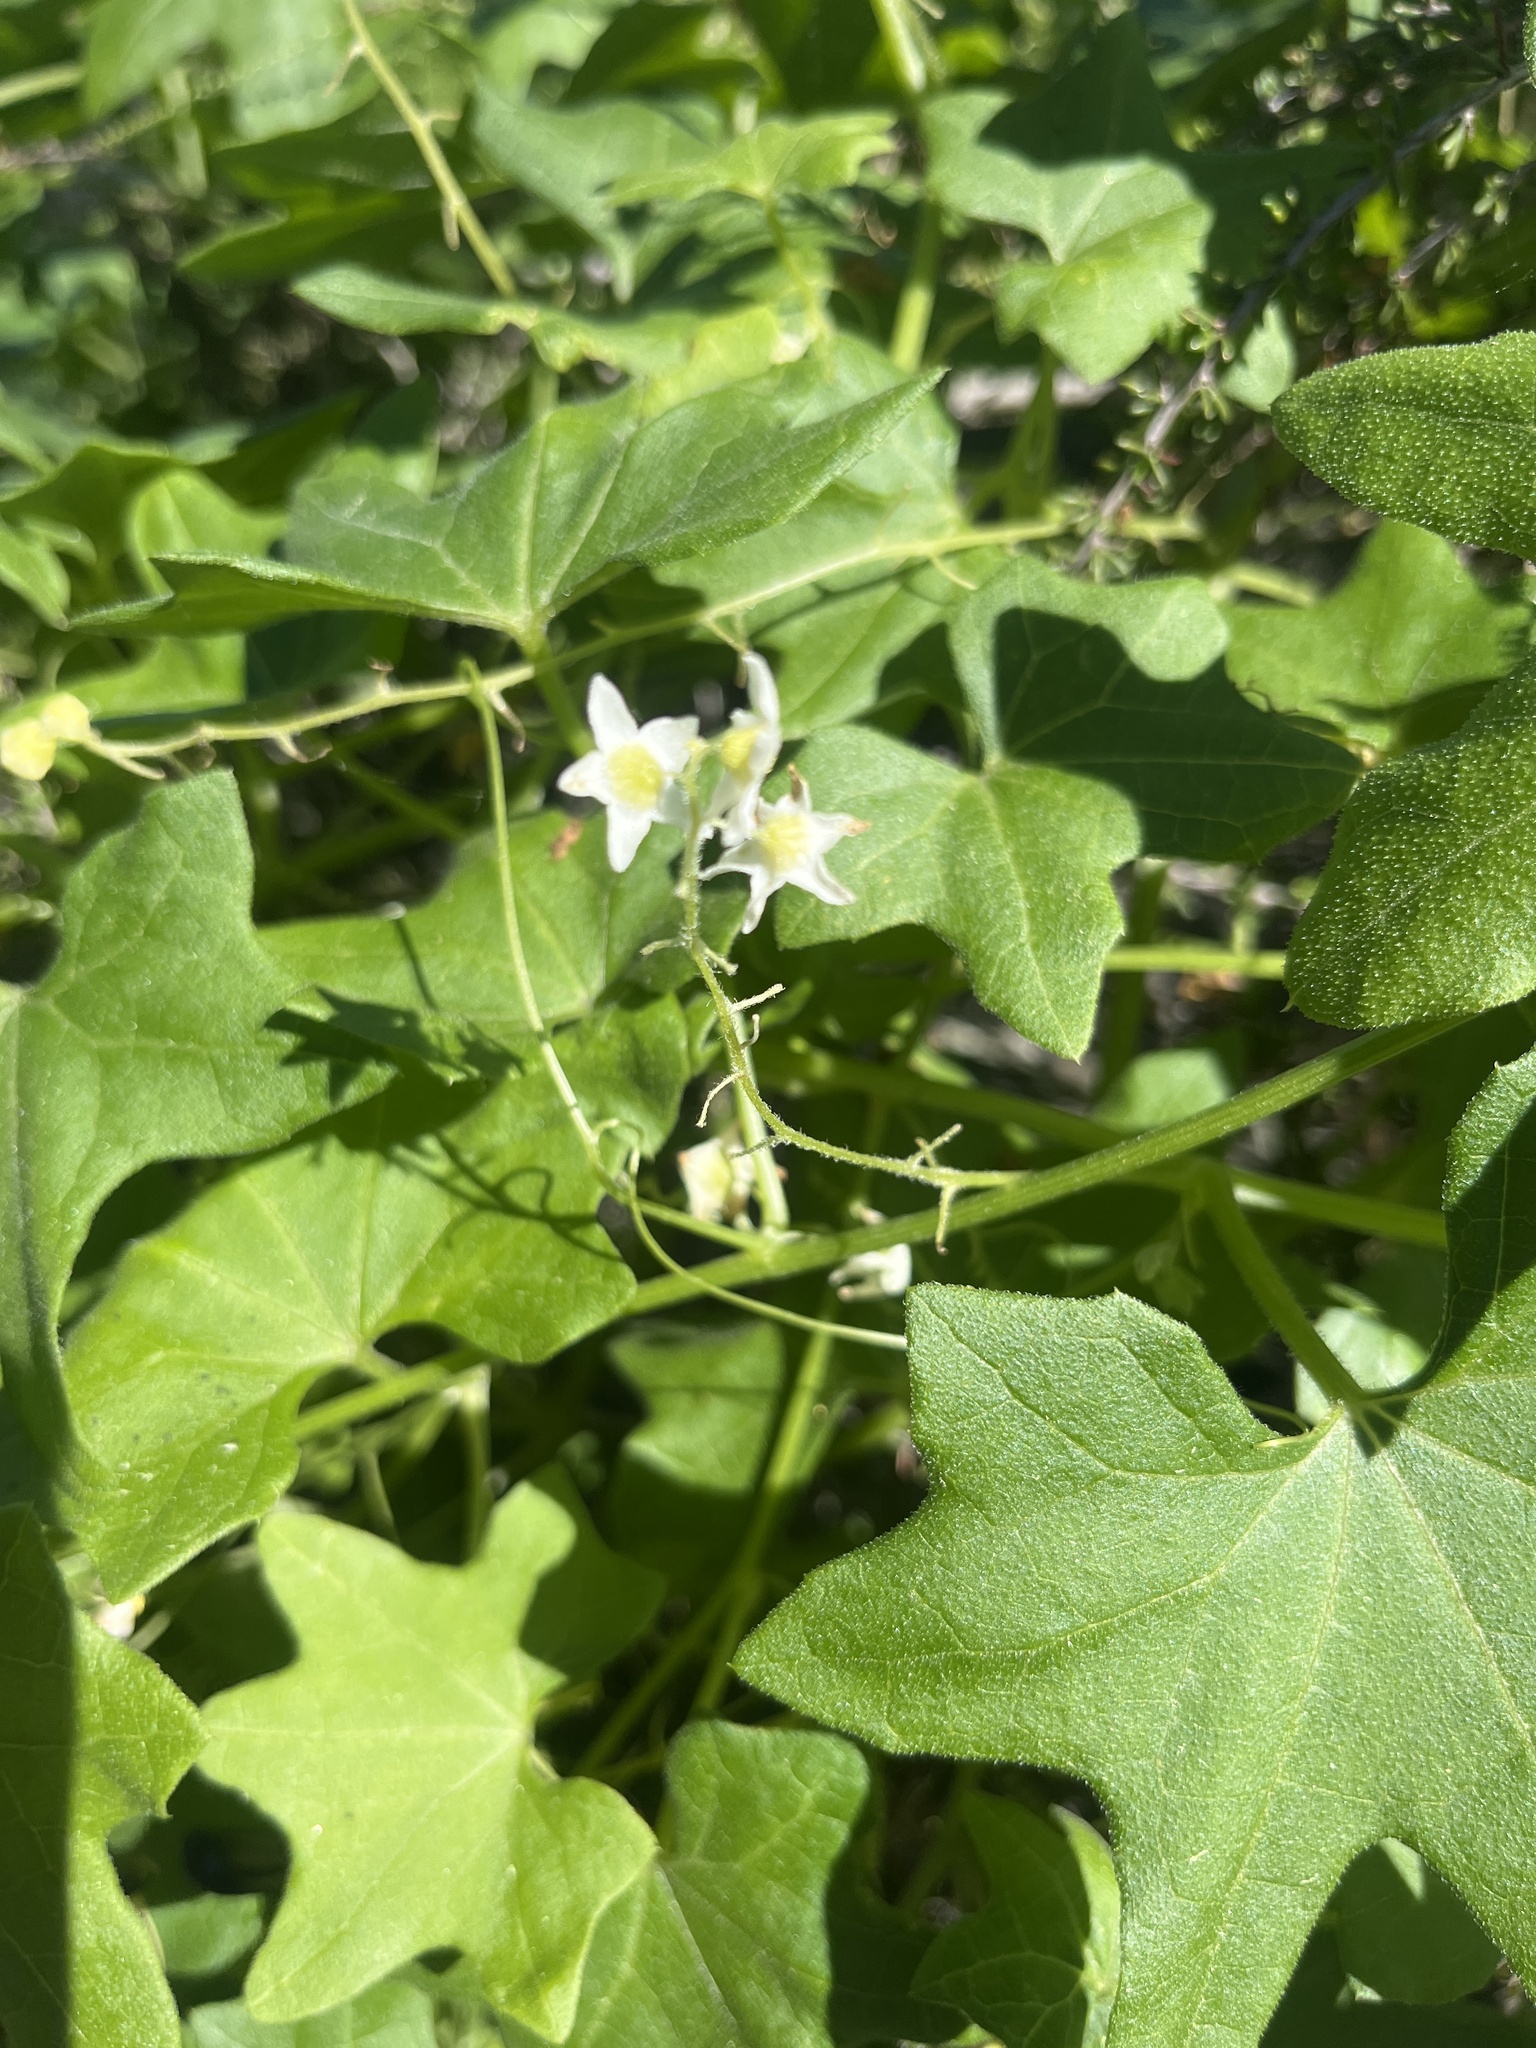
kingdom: Plantae
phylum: Tracheophyta
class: Magnoliopsida
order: Cucurbitales
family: Cucurbitaceae
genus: Marah
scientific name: Marah macrocarpa
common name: Cucamonga manroot
